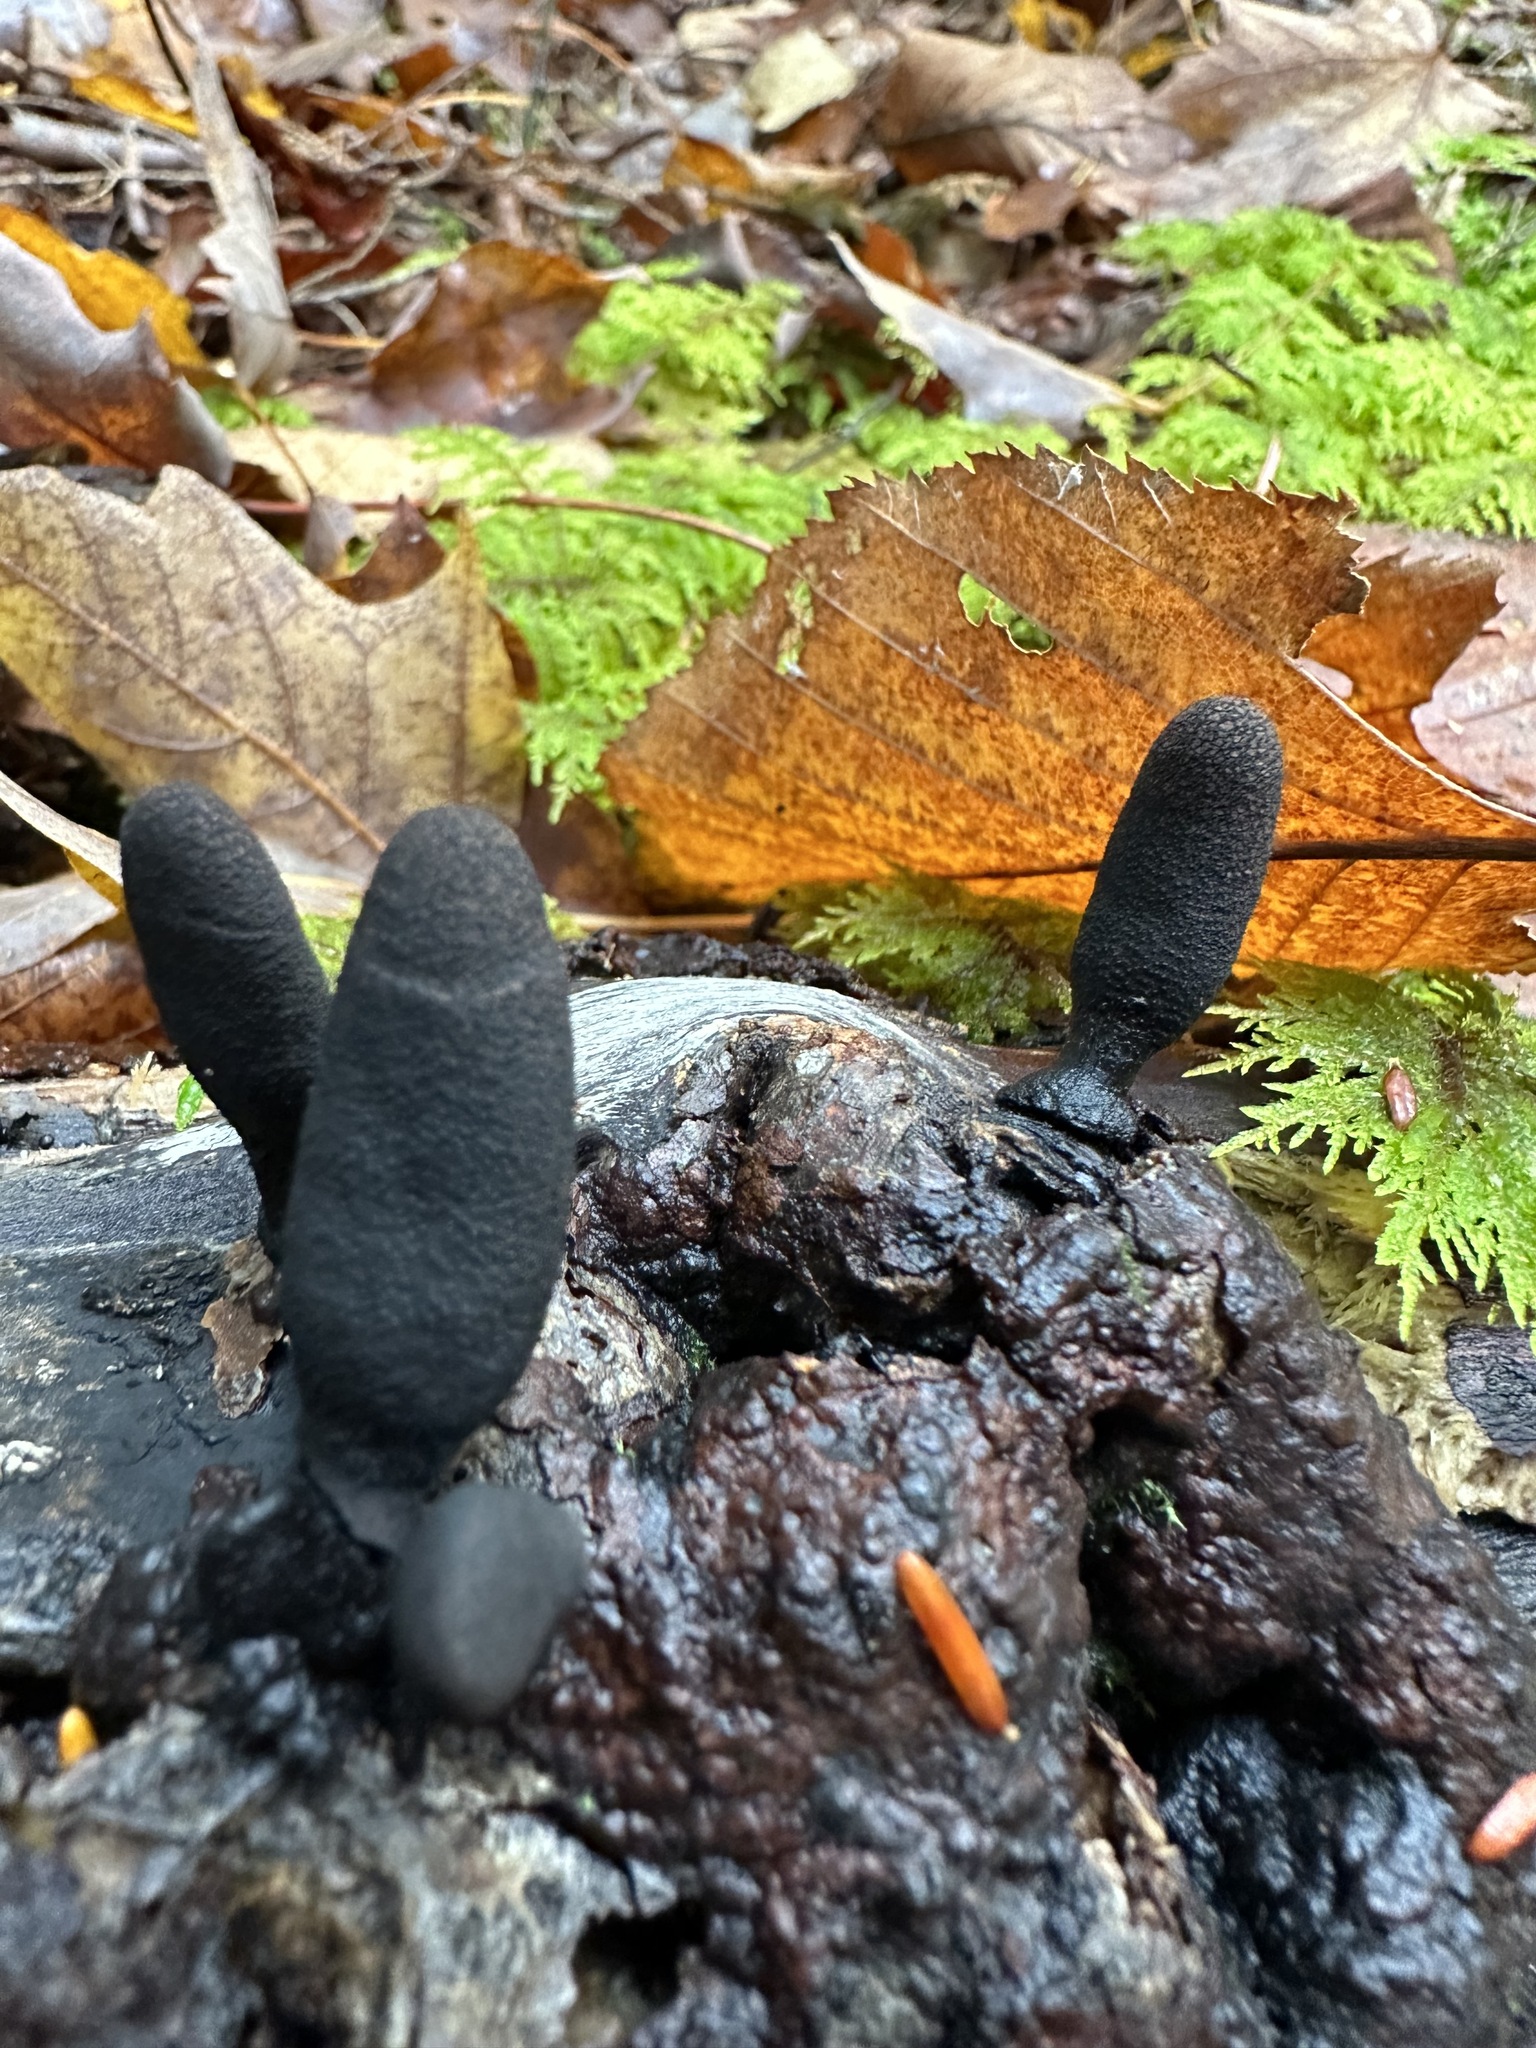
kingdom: Fungi
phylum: Ascomycota
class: Sordariomycetes
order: Xylariales
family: Xylariaceae
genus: Xylaria
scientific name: Xylaria polymorpha
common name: Dead man's fingers
